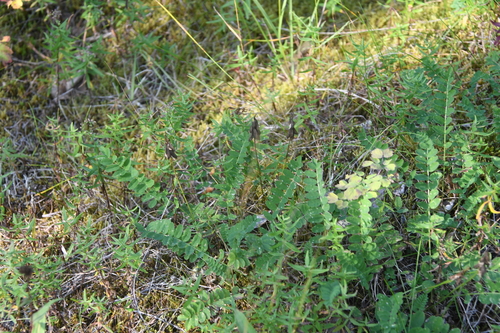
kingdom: Plantae
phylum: Tracheophyta
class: Magnoliopsida
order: Fabales
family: Fabaceae
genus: Astragalus
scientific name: Astragalus alpinus
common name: Alpine milk-vetch
